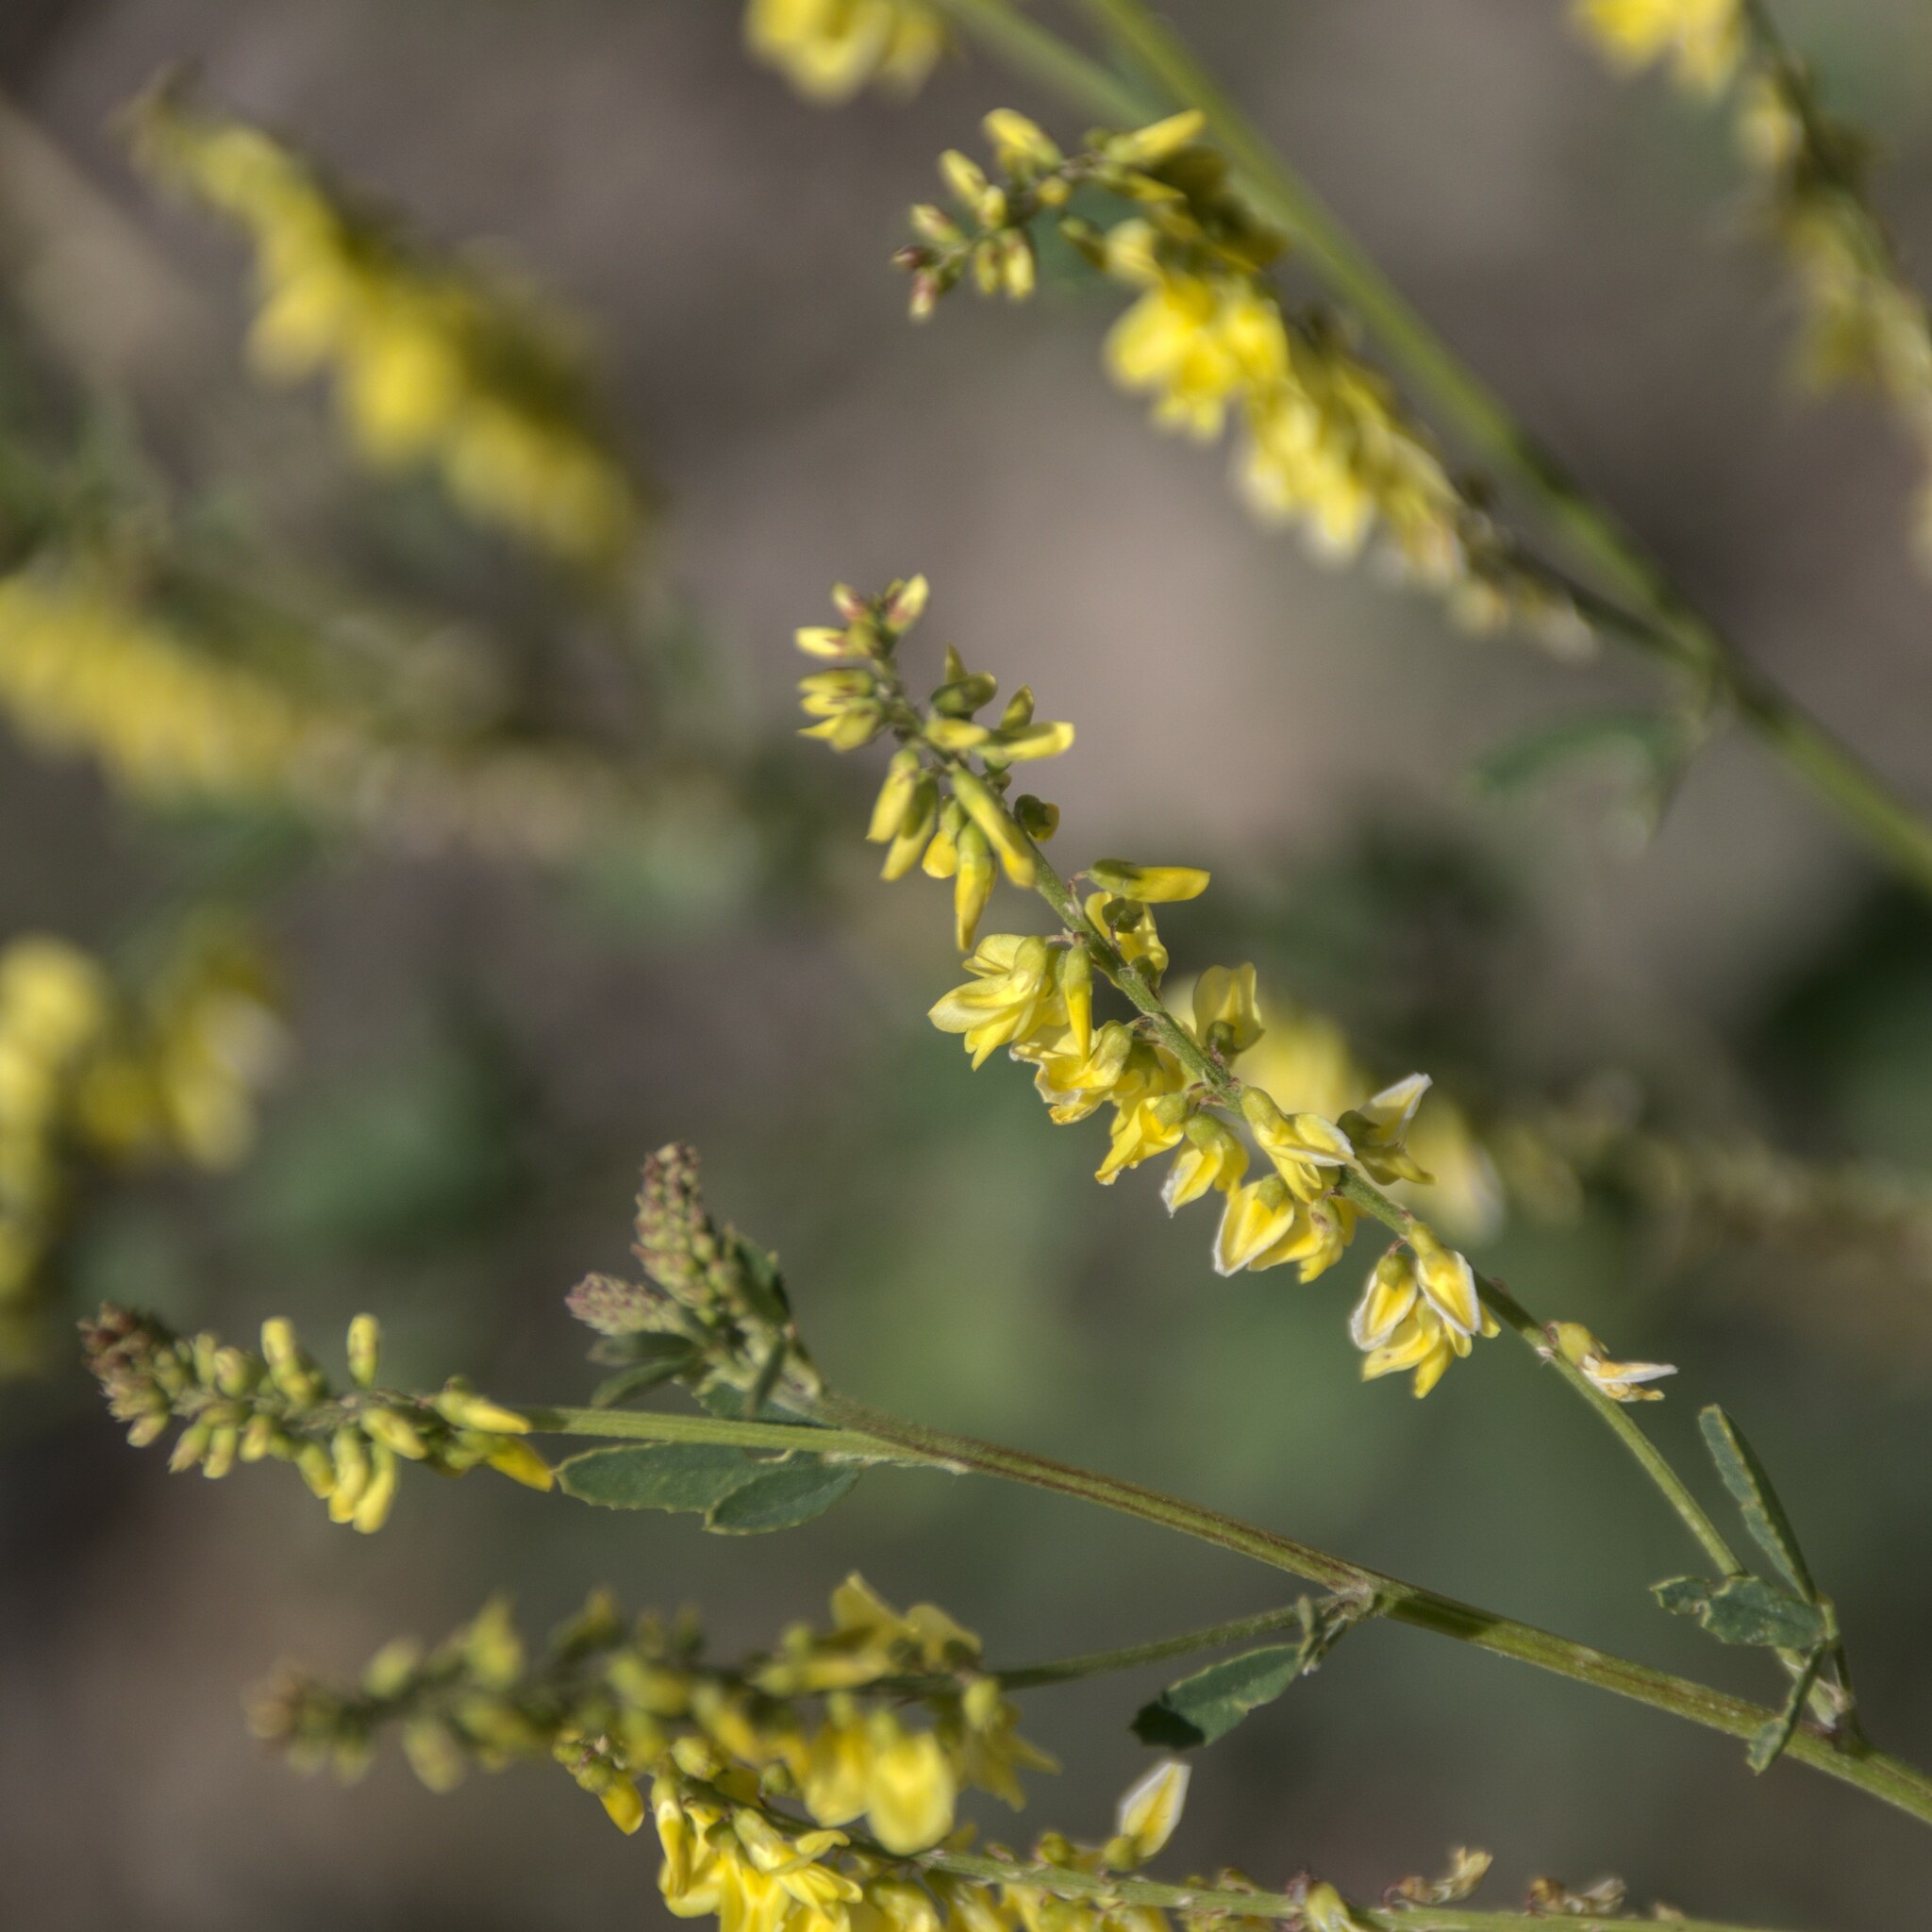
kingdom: Plantae
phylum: Tracheophyta
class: Magnoliopsida
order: Fabales
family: Fabaceae
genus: Melilotus
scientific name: Melilotus officinalis
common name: Sweetclover
